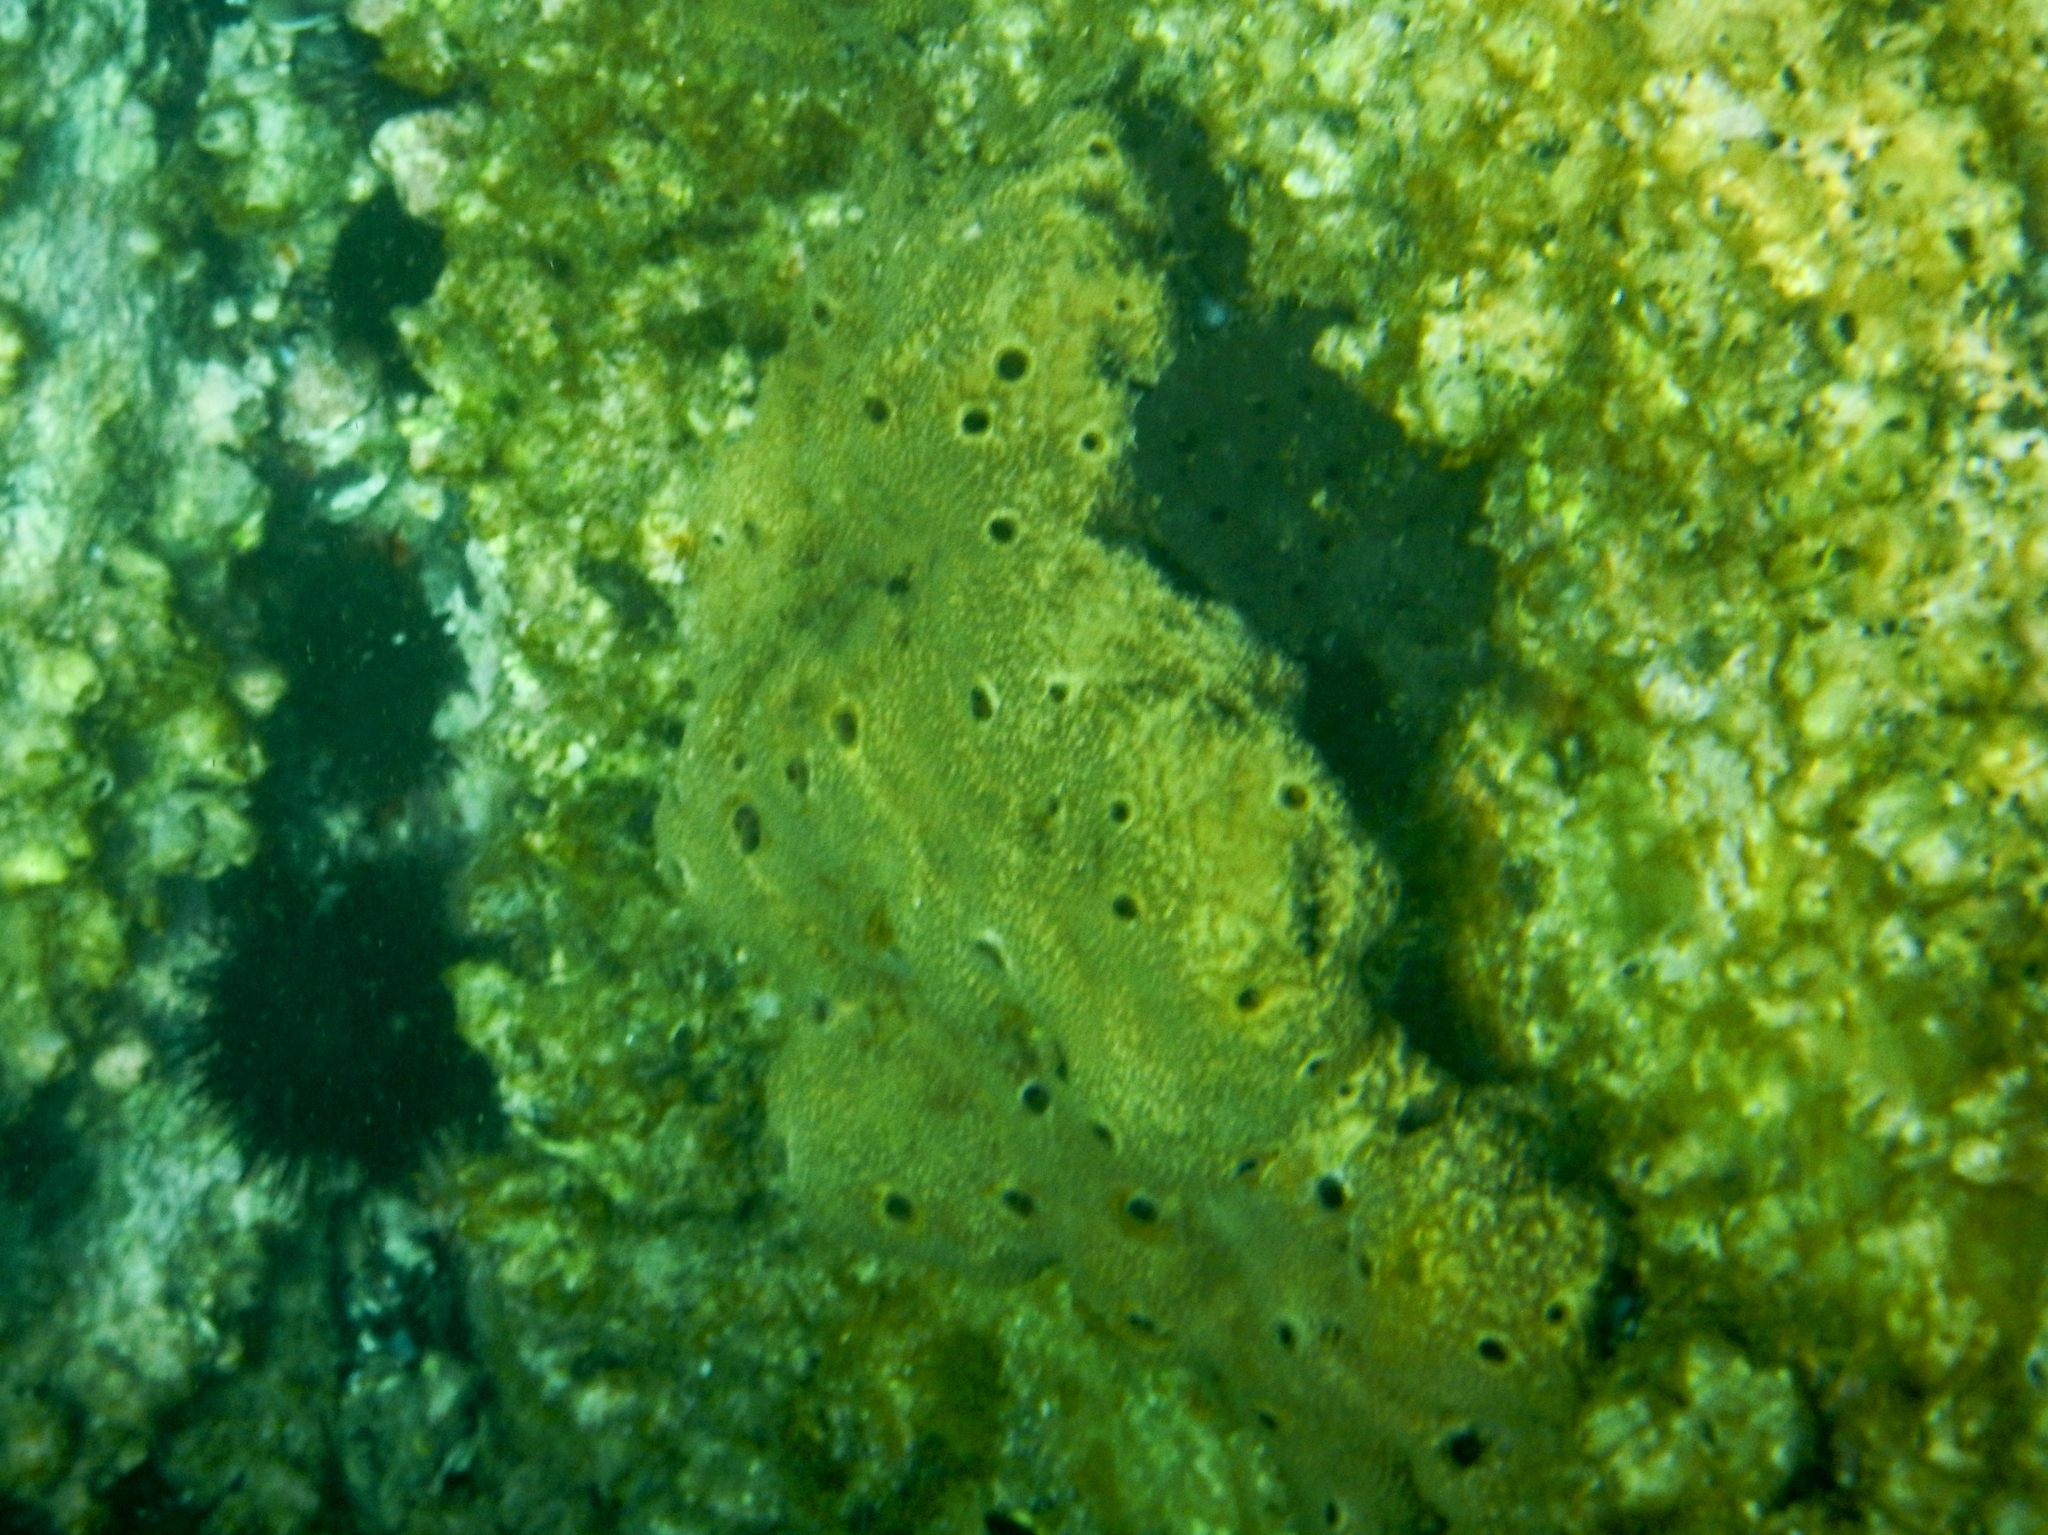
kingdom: Animalia
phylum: Porifera
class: Demospongiae
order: Dictyoceratida
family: Irciniidae
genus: Ircinia
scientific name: Ircinia variabilis
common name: Variable loggerhead sponge
